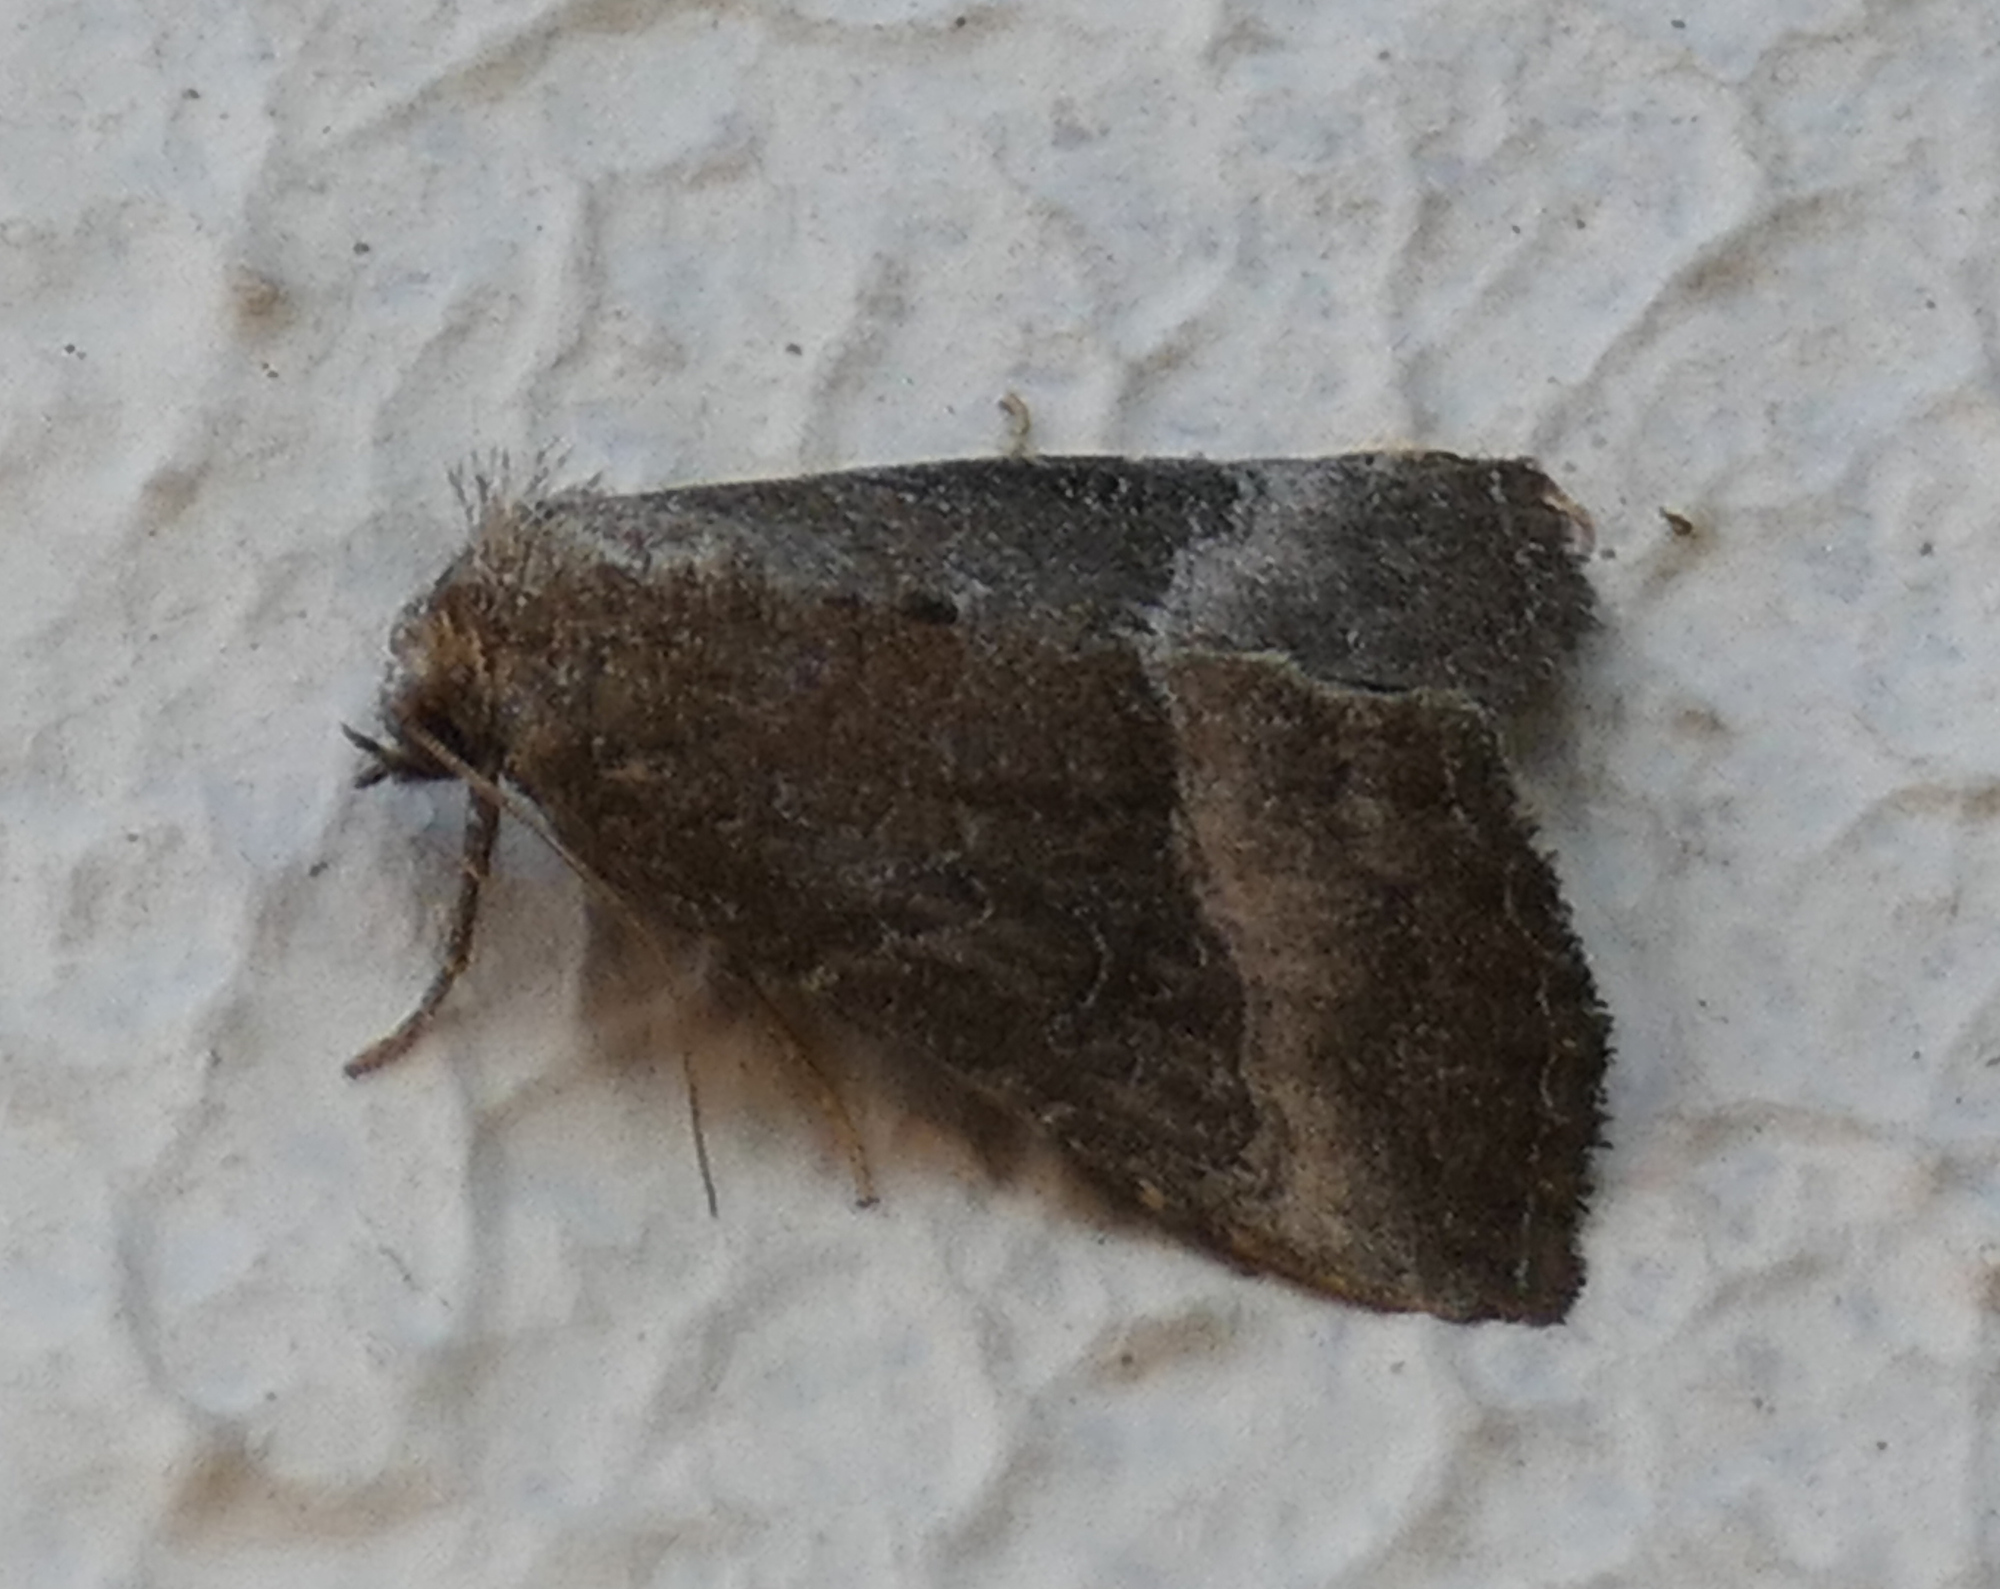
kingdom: Animalia
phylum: Arthropoda
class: Insecta
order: Lepidoptera
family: Noctuidae
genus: Ogdoconta
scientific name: Ogdoconta cinereola
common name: Common pinkband
